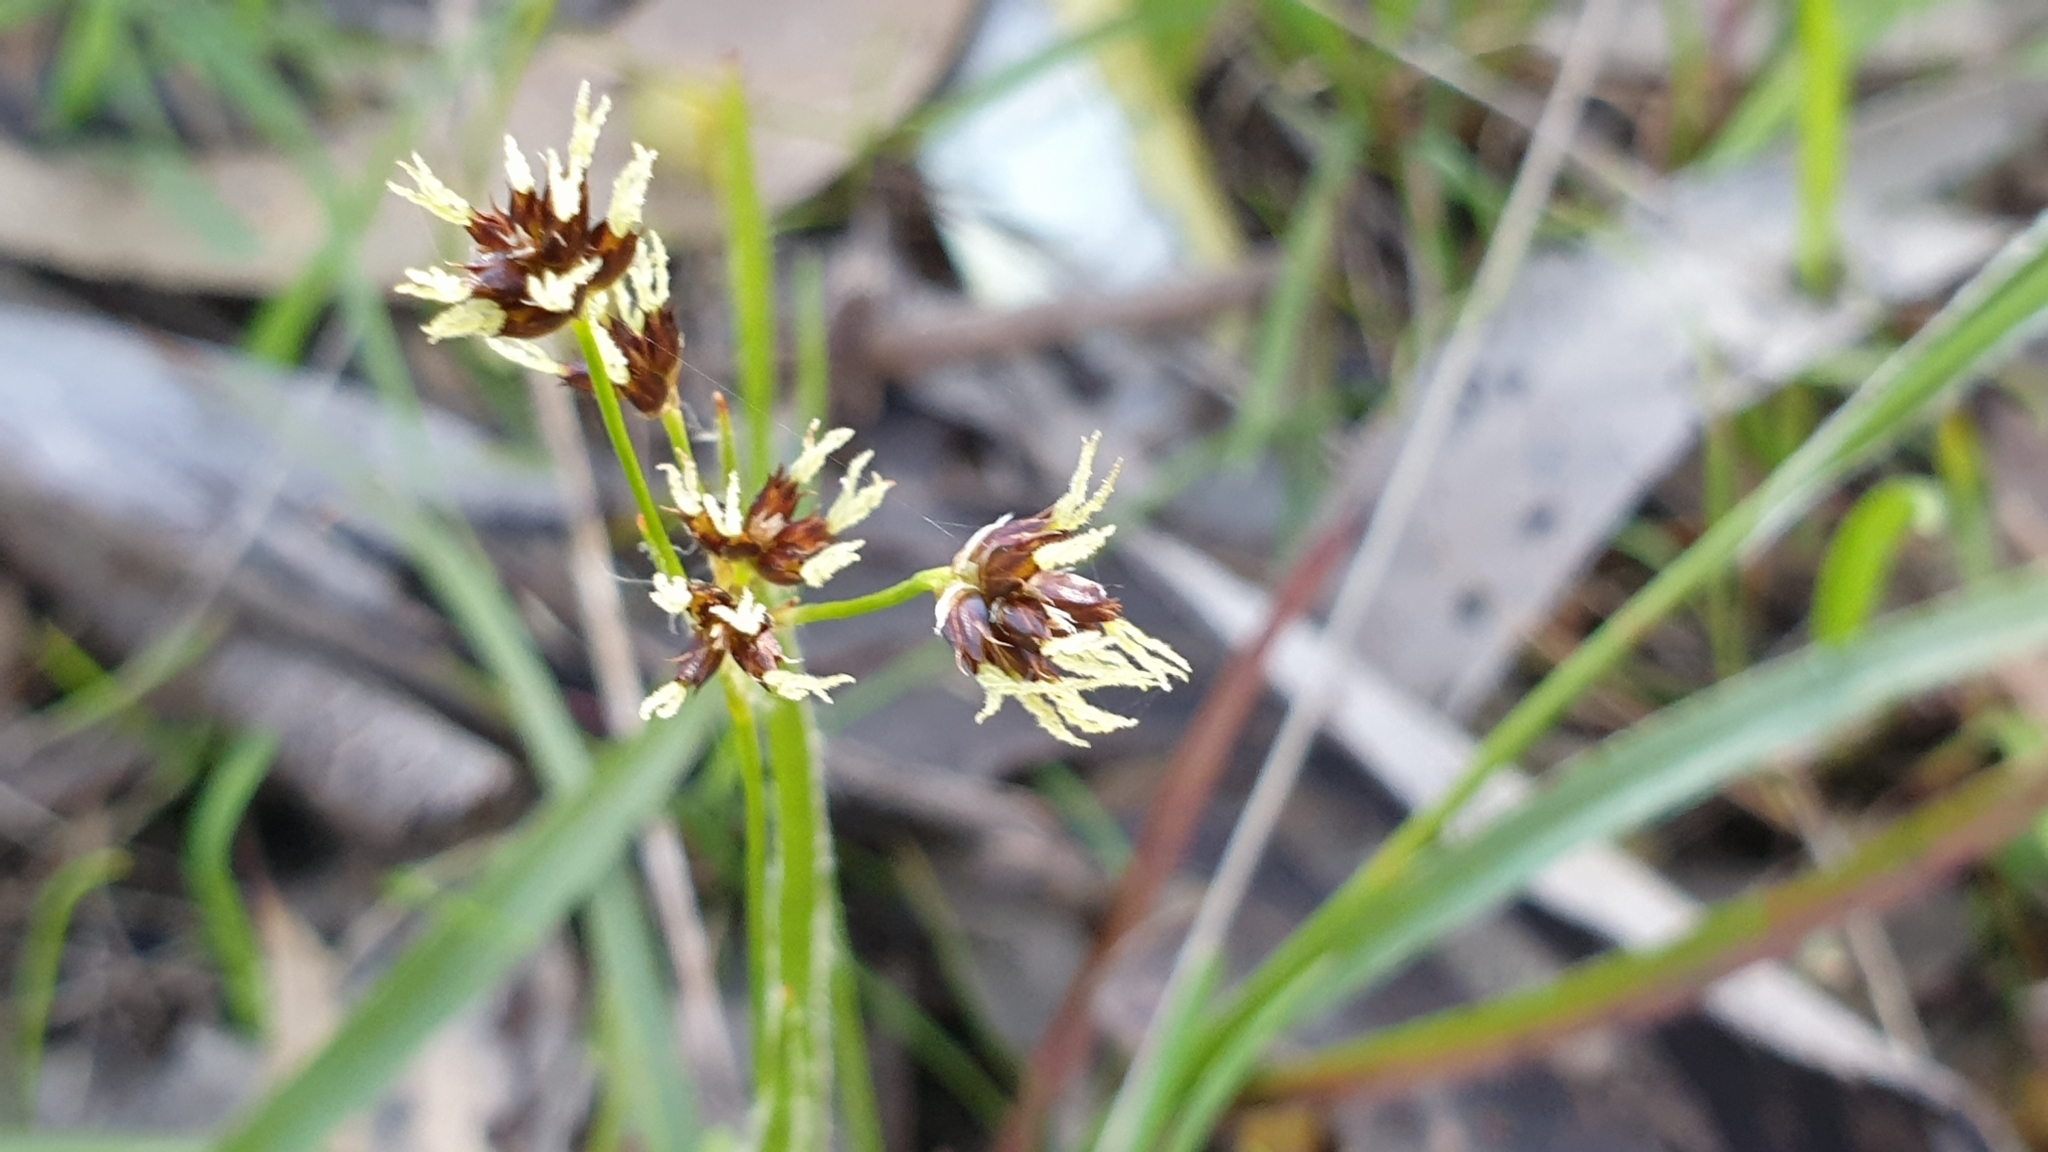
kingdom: Plantae
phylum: Tracheophyta
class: Liliopsida
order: Poales
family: Juncaceae
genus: Luzula
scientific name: Luzula meridionalis
